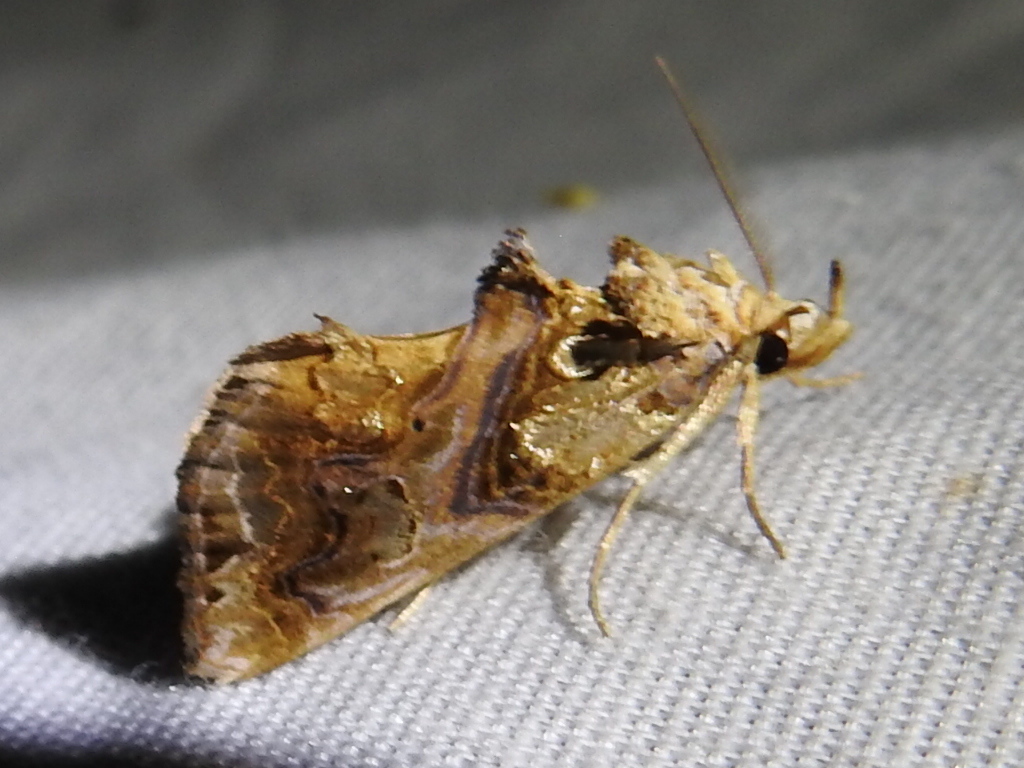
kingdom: Animalia
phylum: Arthropoda
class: Insecta
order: Lepidoptera
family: Erebidae
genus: Plusiodonta
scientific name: Plusiodonta compressipalpis
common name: Moonseed moth
